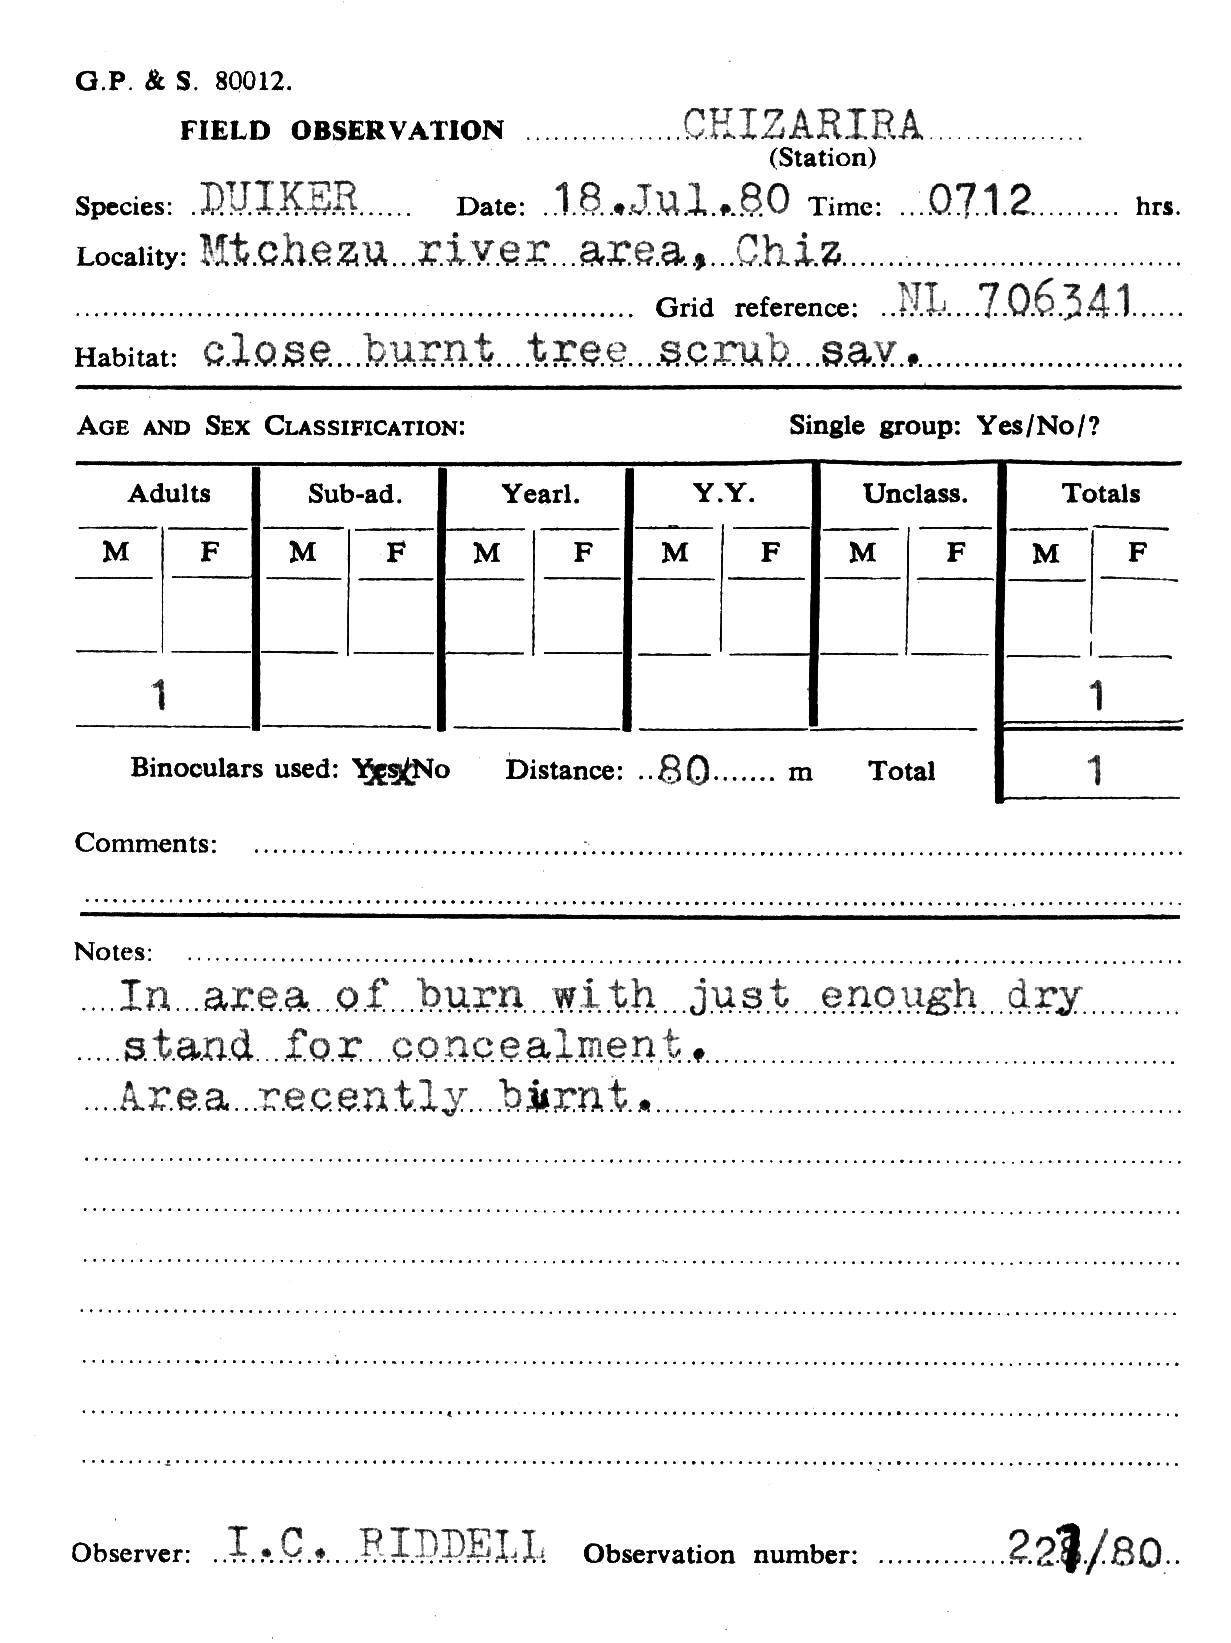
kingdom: Animalia
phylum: Chordata
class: Mammalia
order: Artiodactyla
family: Bovidae
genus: Sylvicapra
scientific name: Sylvicapra grimmia
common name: Bush duiker
